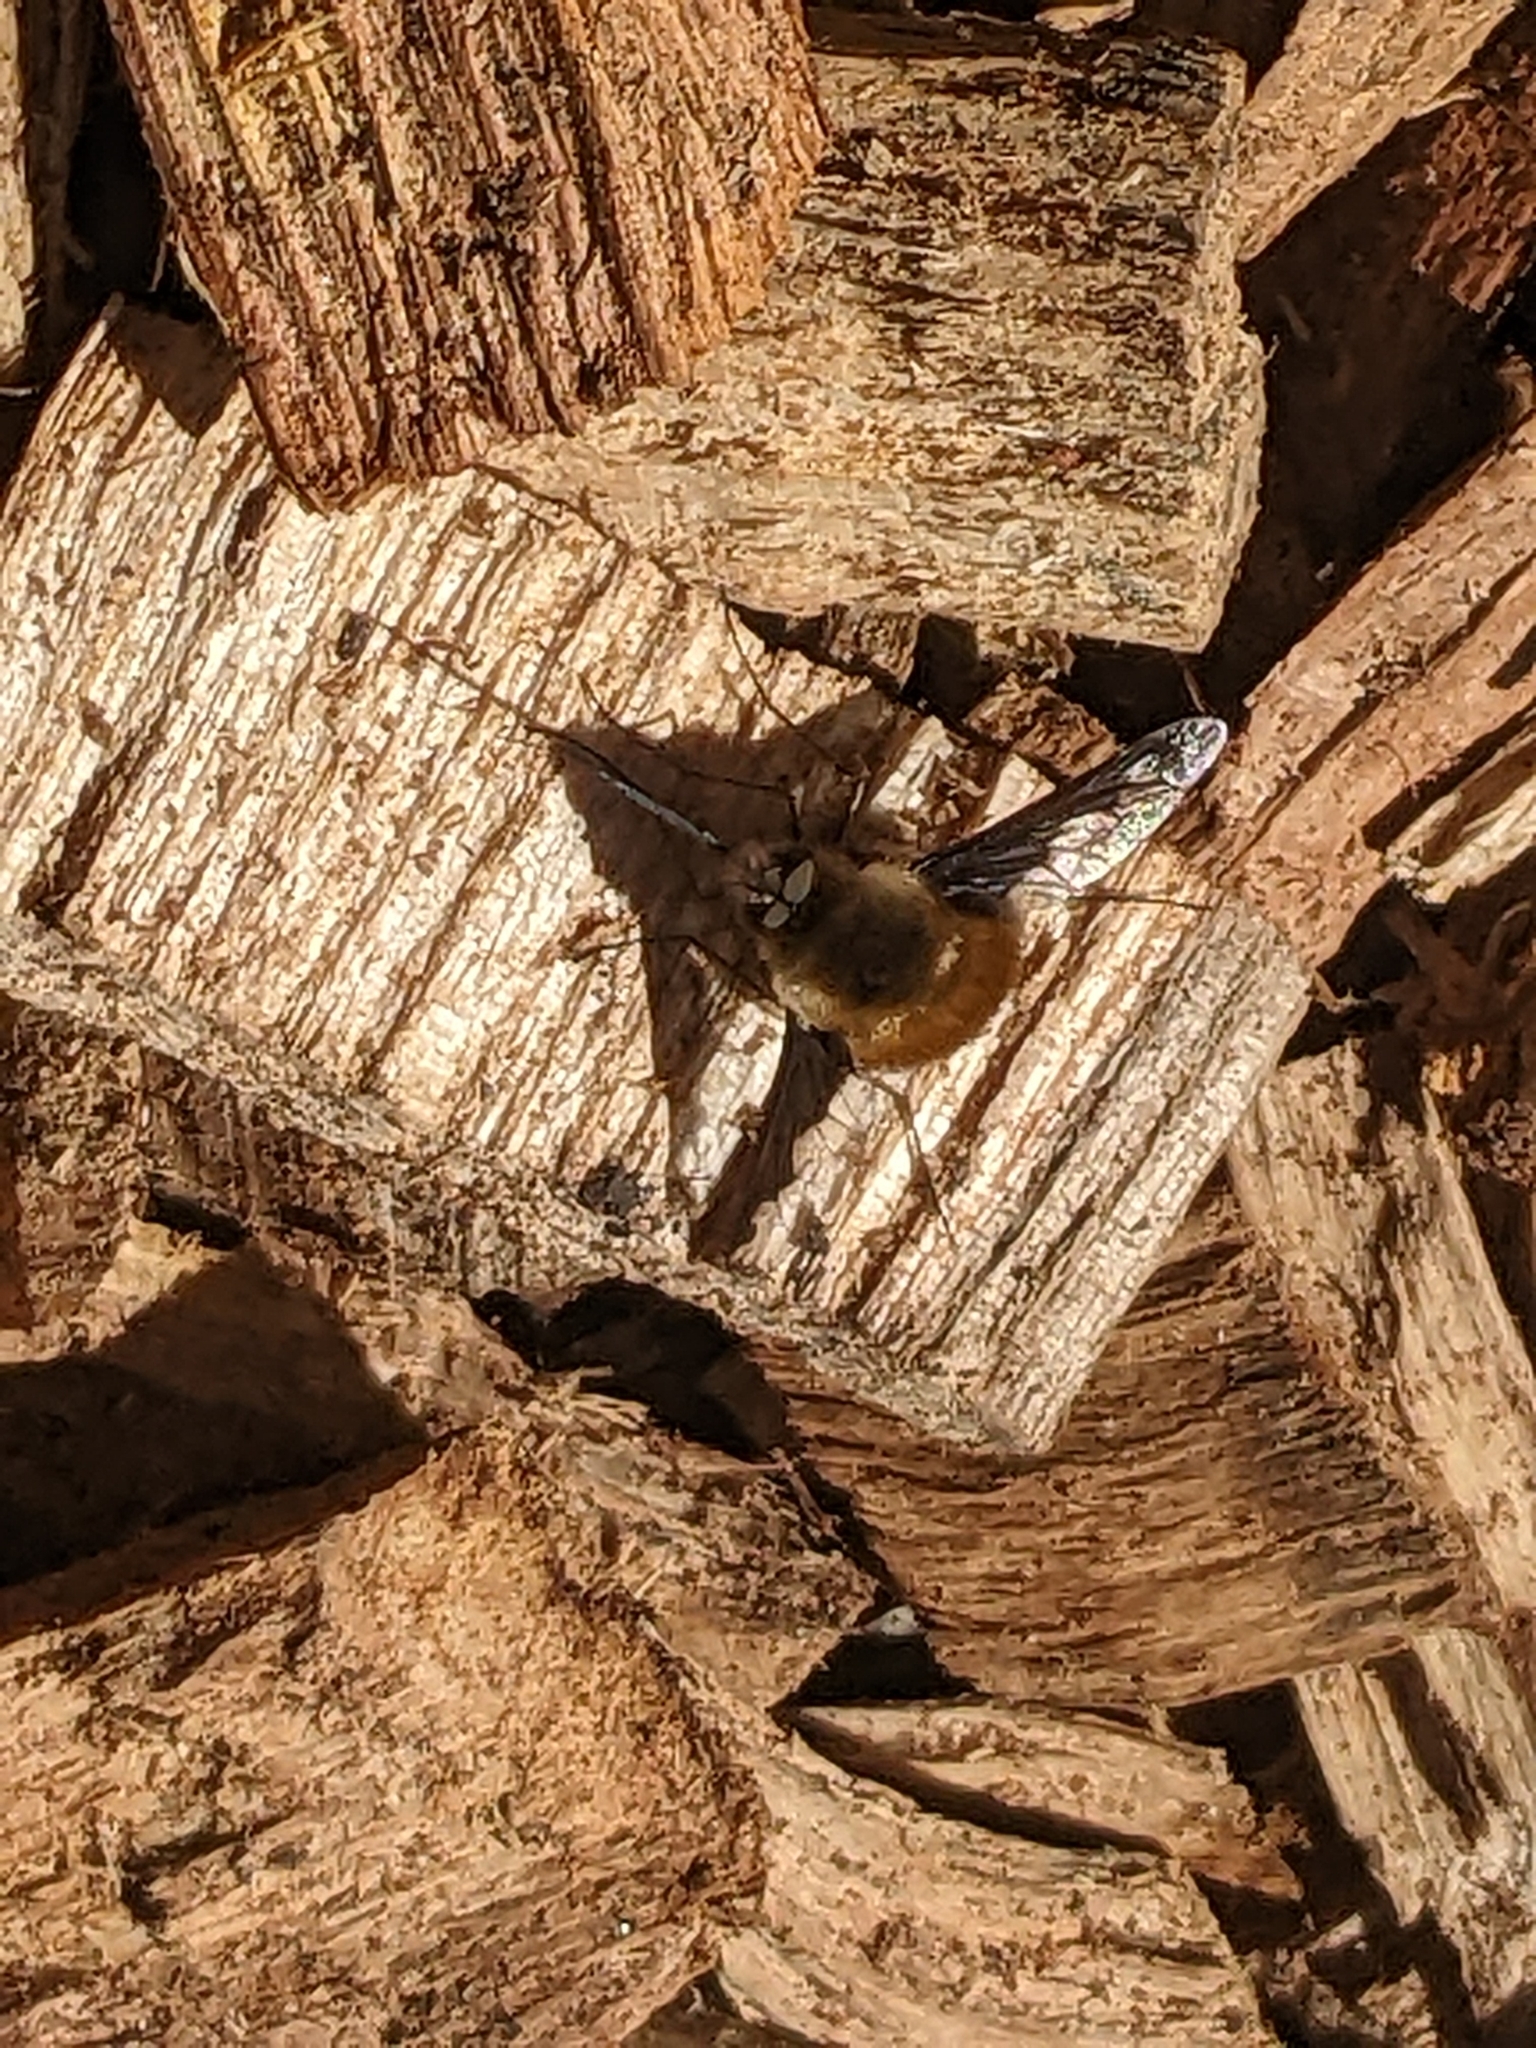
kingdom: Animalia
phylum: Arthropoda
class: Insecta
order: Diptera
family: Bombyliidae
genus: Bombylius
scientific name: Bombylius major
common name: Bee fly
